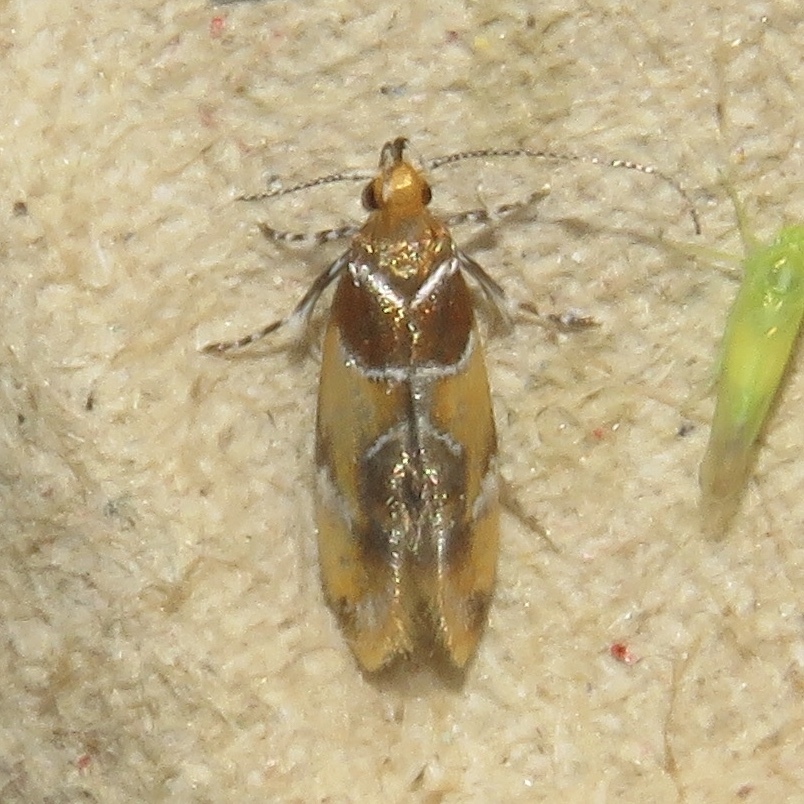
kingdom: Animalia
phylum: Arthropoda
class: Insecta
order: Lepidoptera
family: Oecophoridae
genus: Callima
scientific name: Callima argenticinctella
